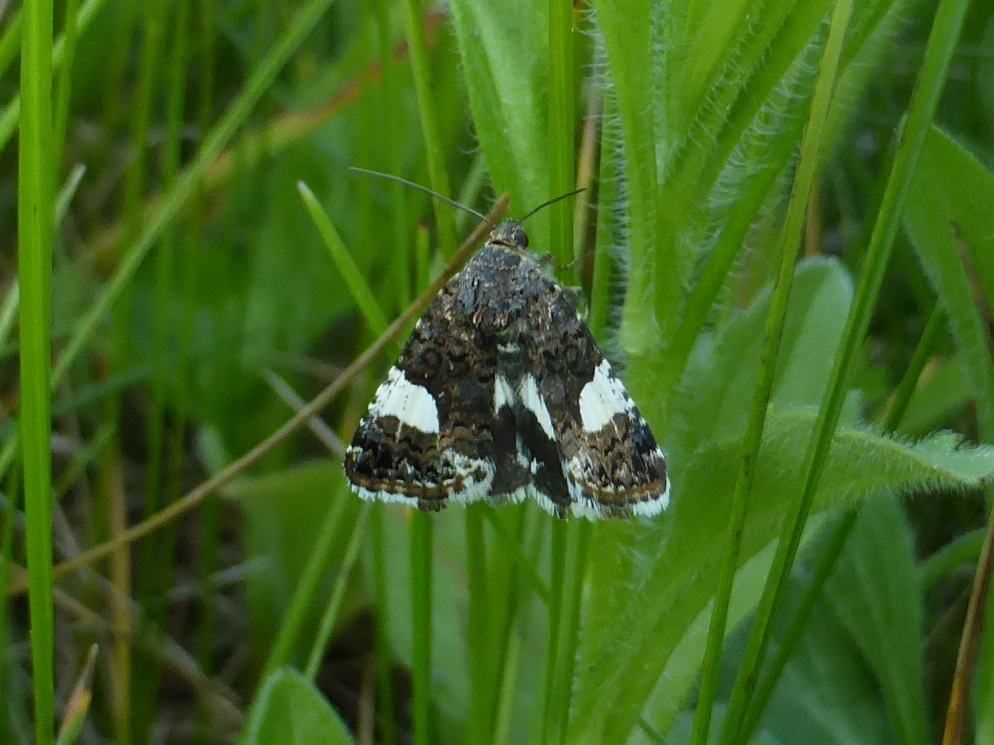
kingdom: Animalia
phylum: Arthropoda
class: Insecta
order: Lepidoptera
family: Erebidae
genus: Tyta
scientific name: Tyta luctuosa
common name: Four-spotted
